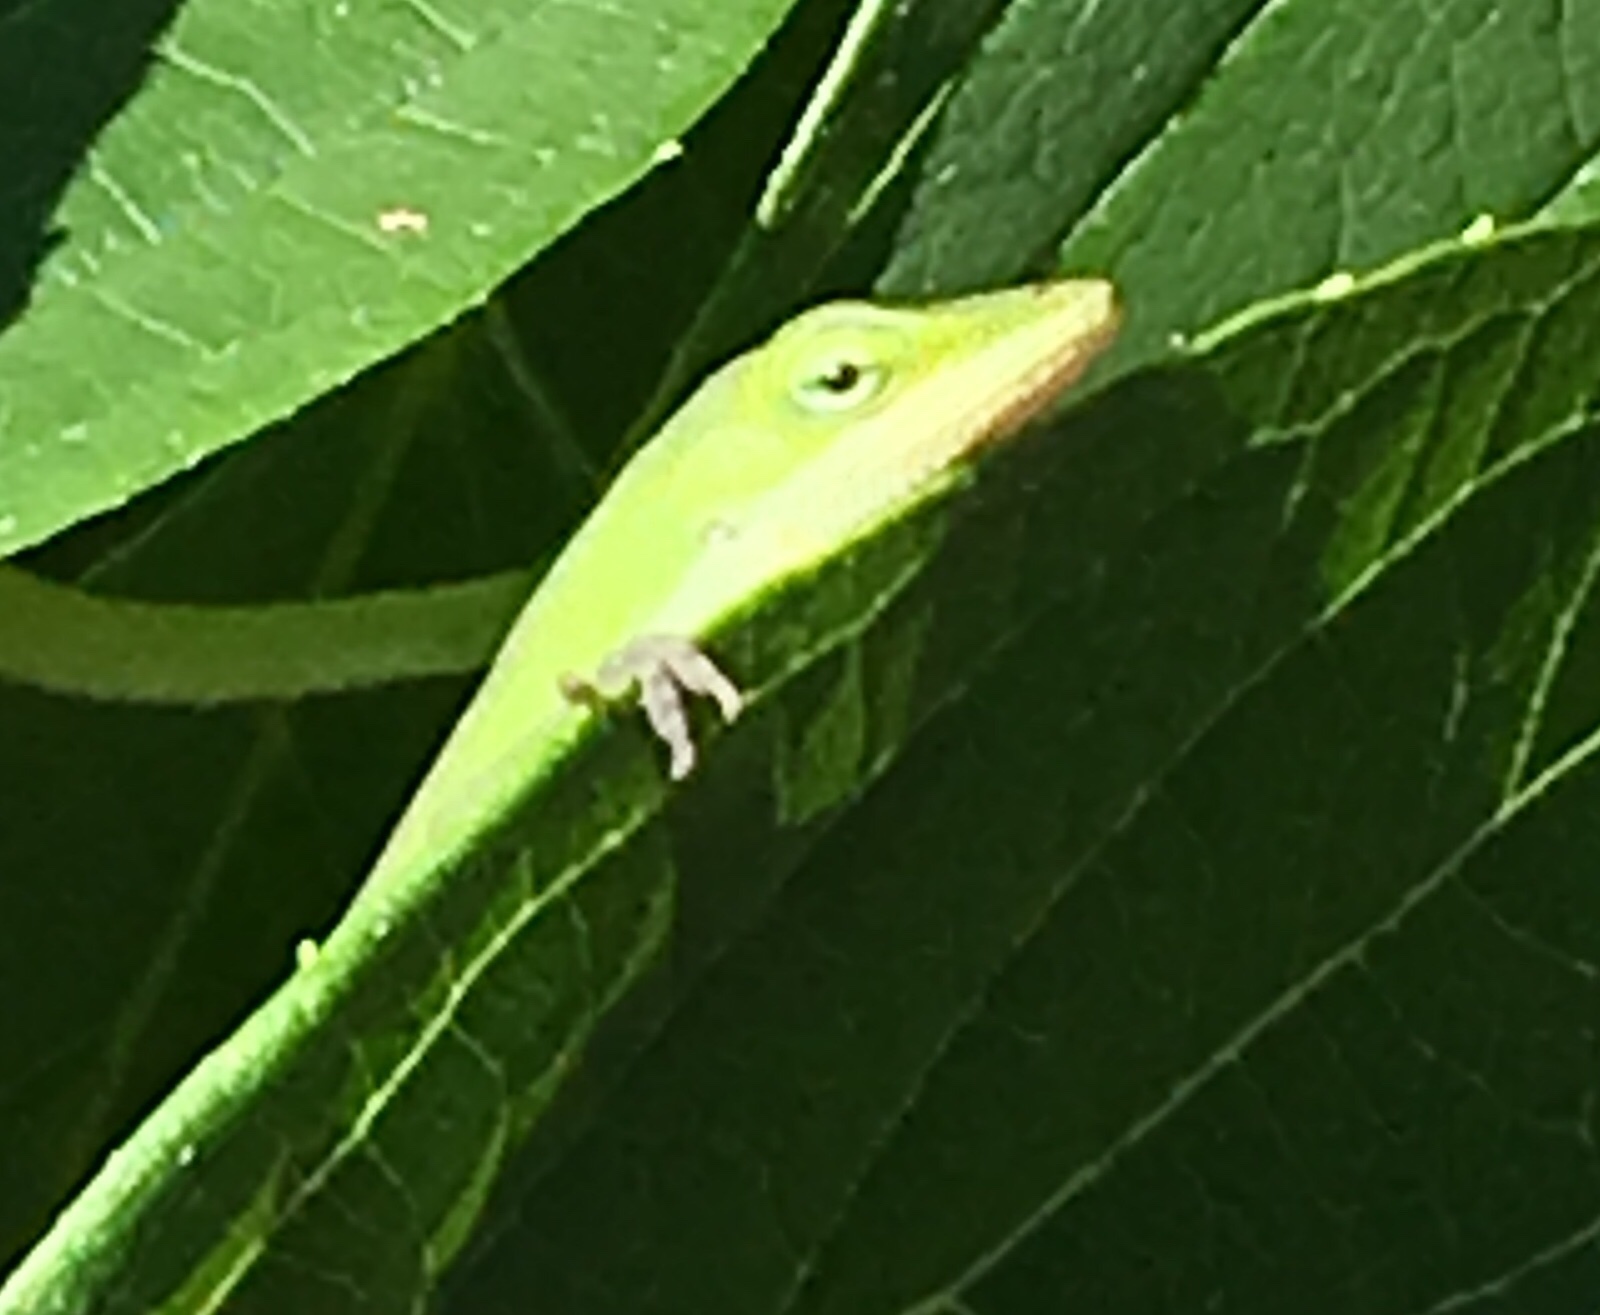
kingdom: Animalia
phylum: Chordata
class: Squamata
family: Dactyloidae
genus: Anolis
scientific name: Anolis carolinensis
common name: Green anole
